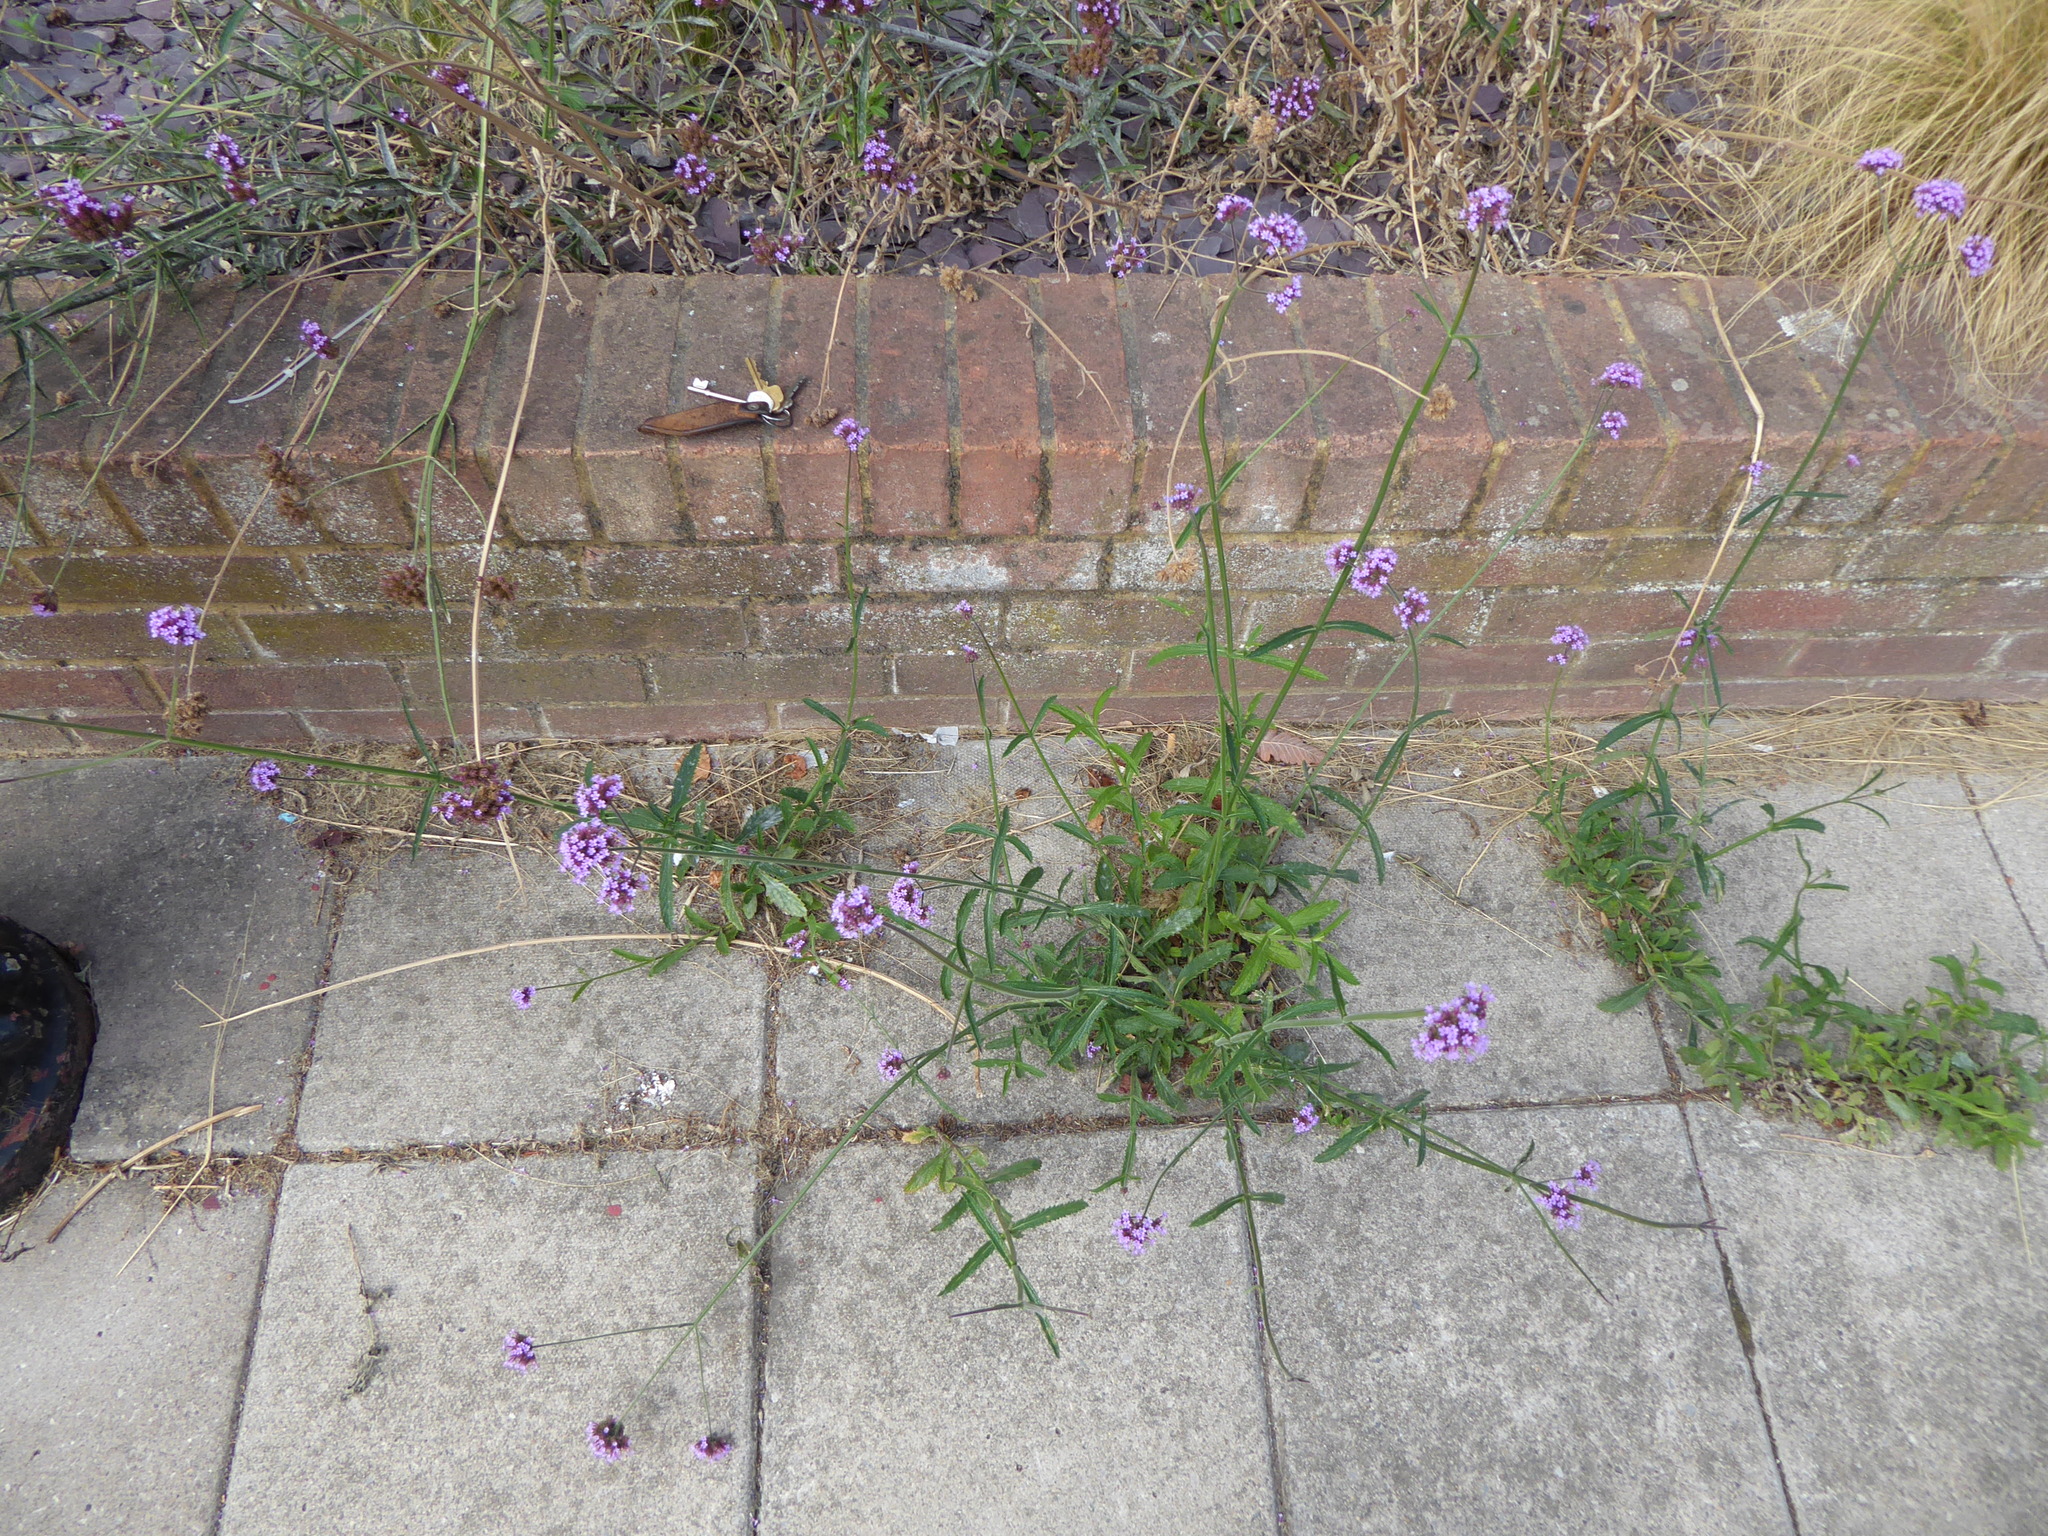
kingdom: Plantae
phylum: Tracheophyta
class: Magnoliopsida
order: Lamiales
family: Verbenaceae
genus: Verbena
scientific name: Verbena bonariensis
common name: Purpletop vervain
